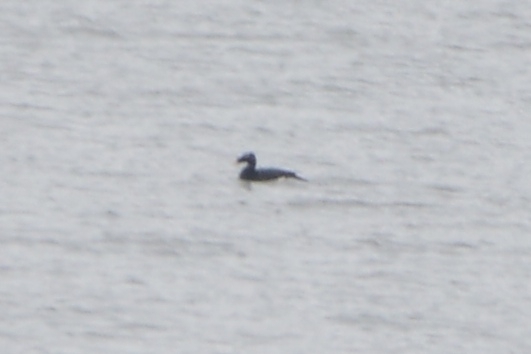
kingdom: Animalia
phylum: Chordata
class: Aves
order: Anseriformes
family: Anatidae
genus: Melanitta
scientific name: Melanitta stejnegeri
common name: Stejneger's scoter
